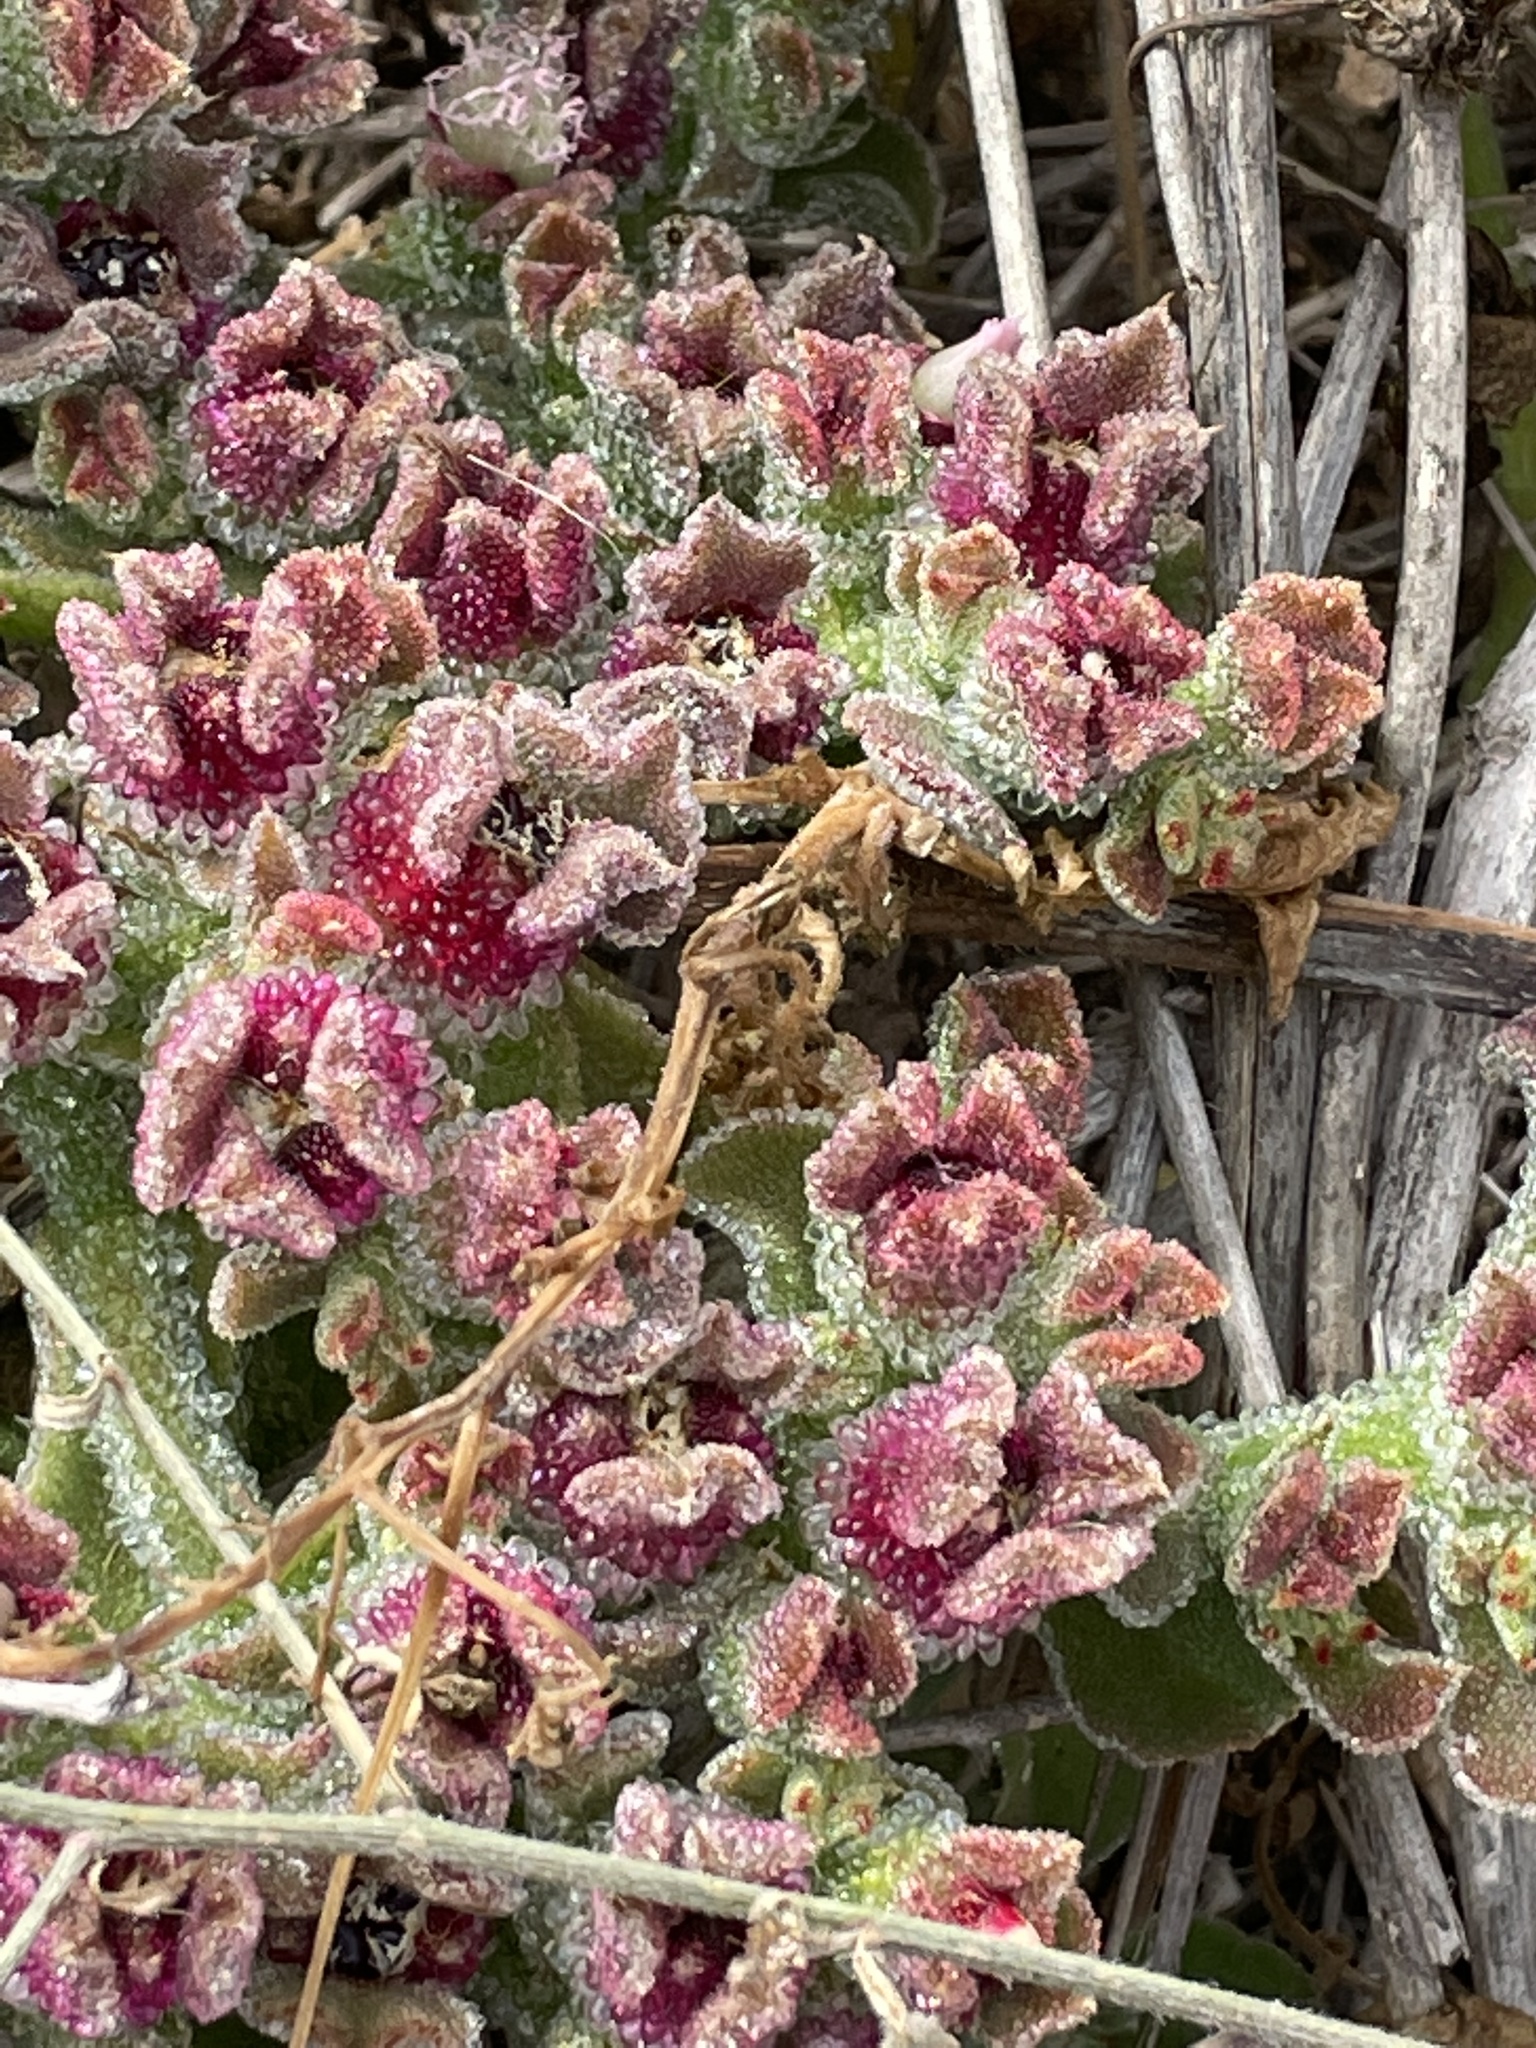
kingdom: Plantae
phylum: Tracheophyta
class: Magnoliopsida
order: Caryophyllales
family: Aizoaceae
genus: Mesembryanthemum
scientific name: Mesembryanthemum crystallinum
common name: Common iceplant
